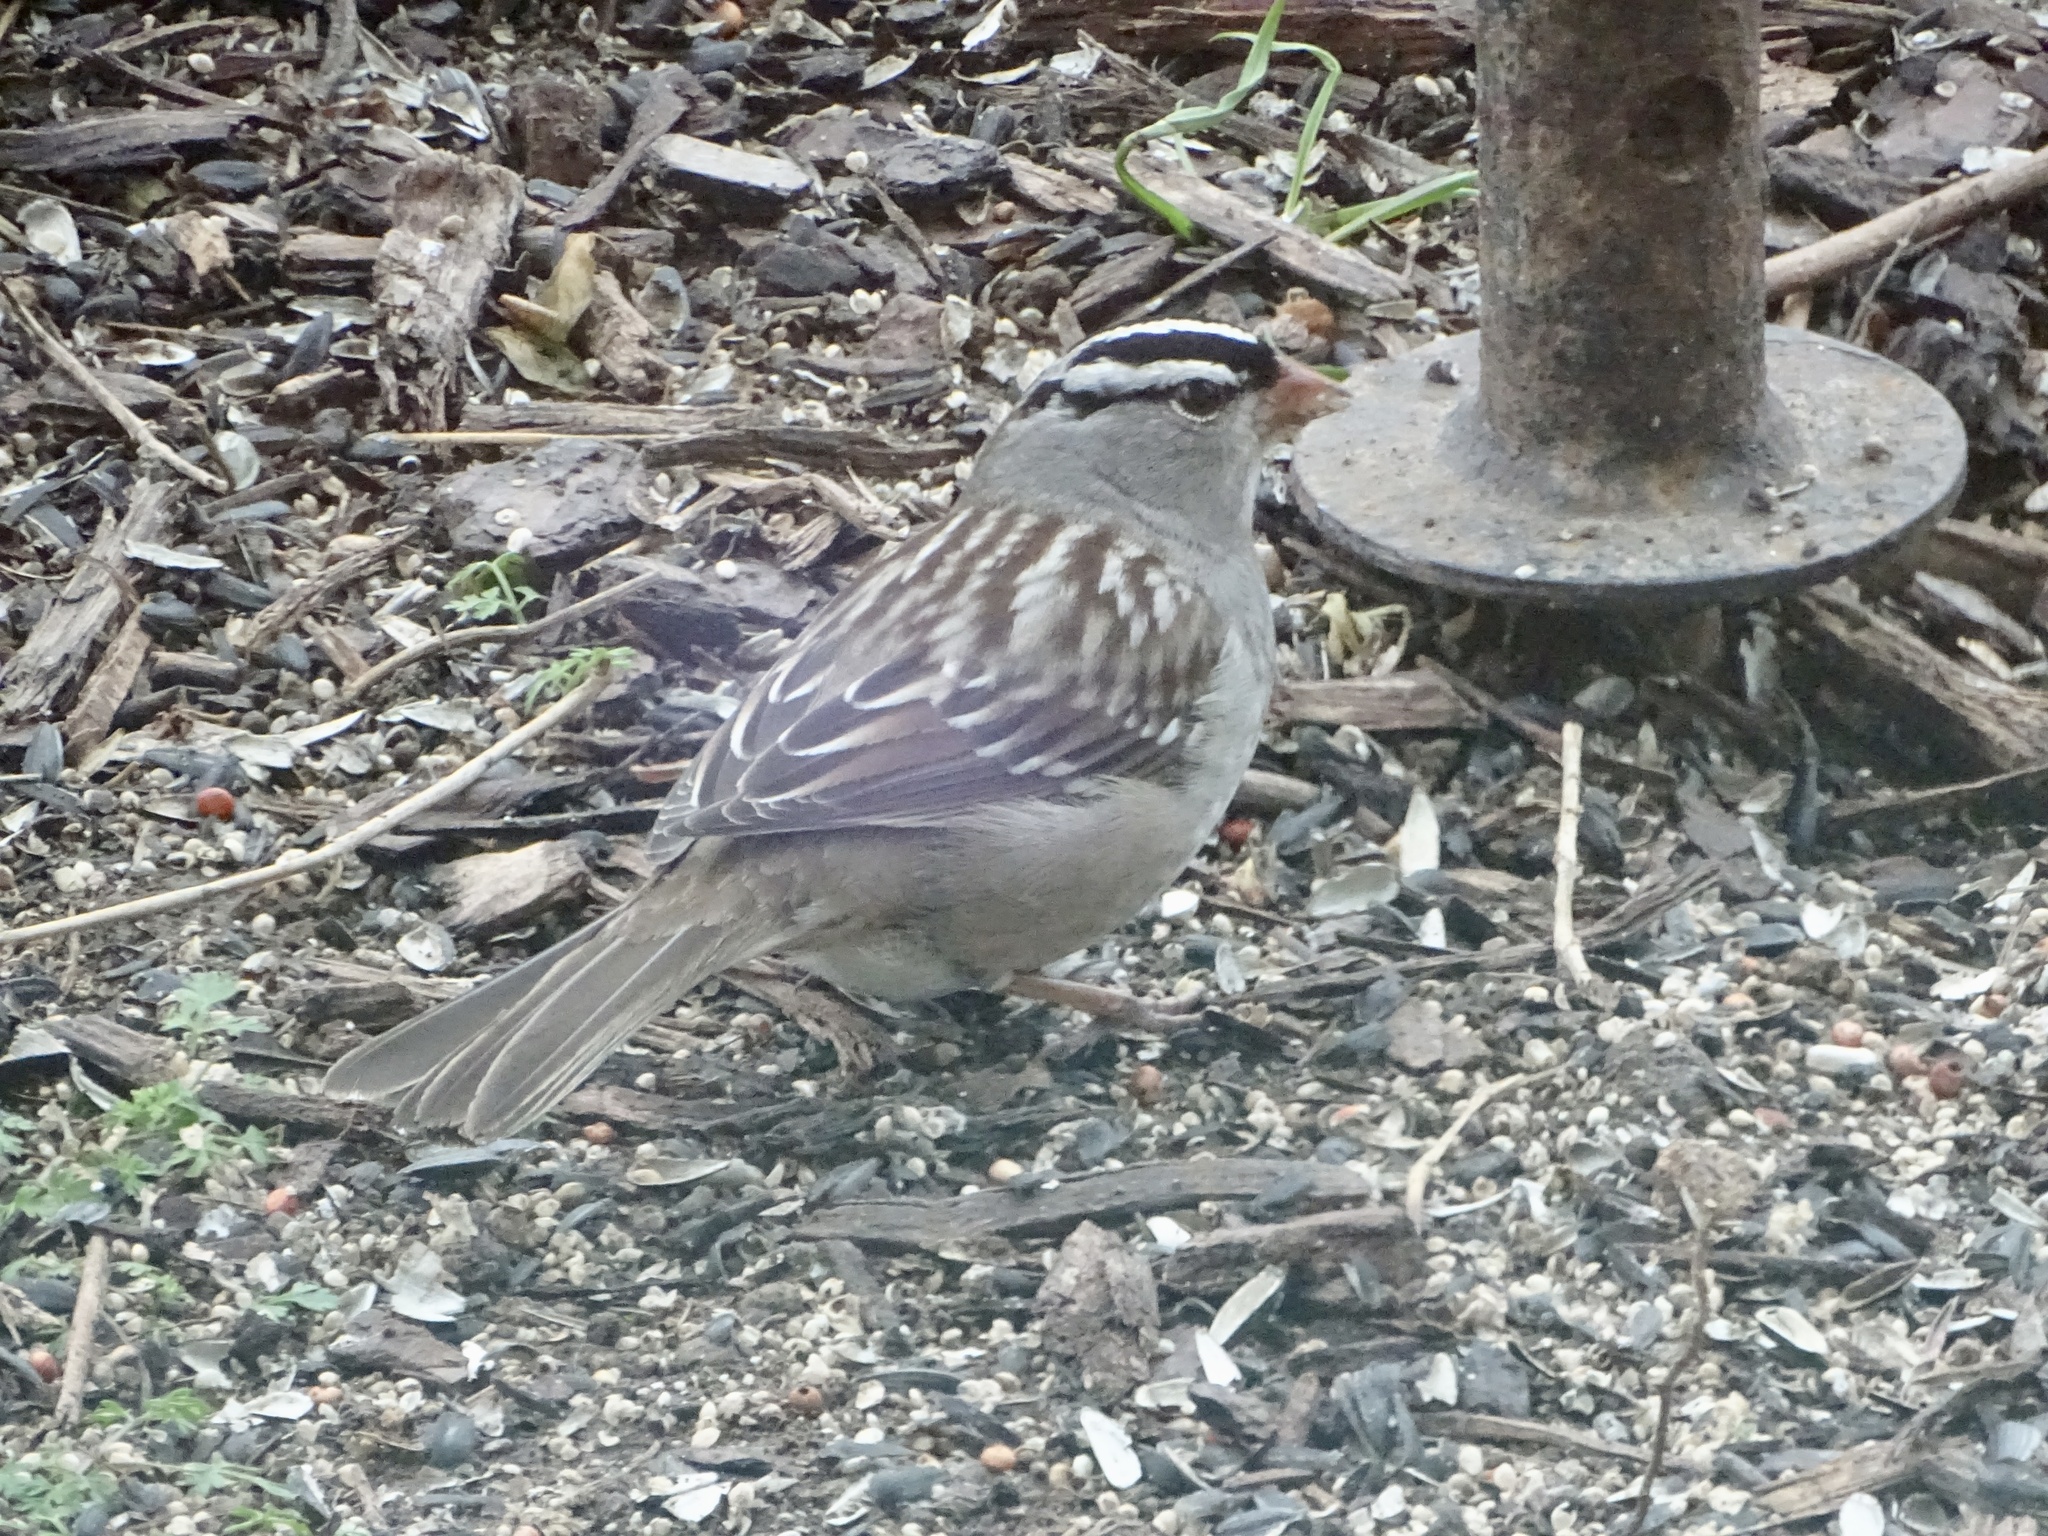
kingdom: Animalia
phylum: Chordata
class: Aves
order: Passeriformes
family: Passerellidae
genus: Zonotrichia
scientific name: Zonotrichia leucophrys
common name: White-crowned sparrow
